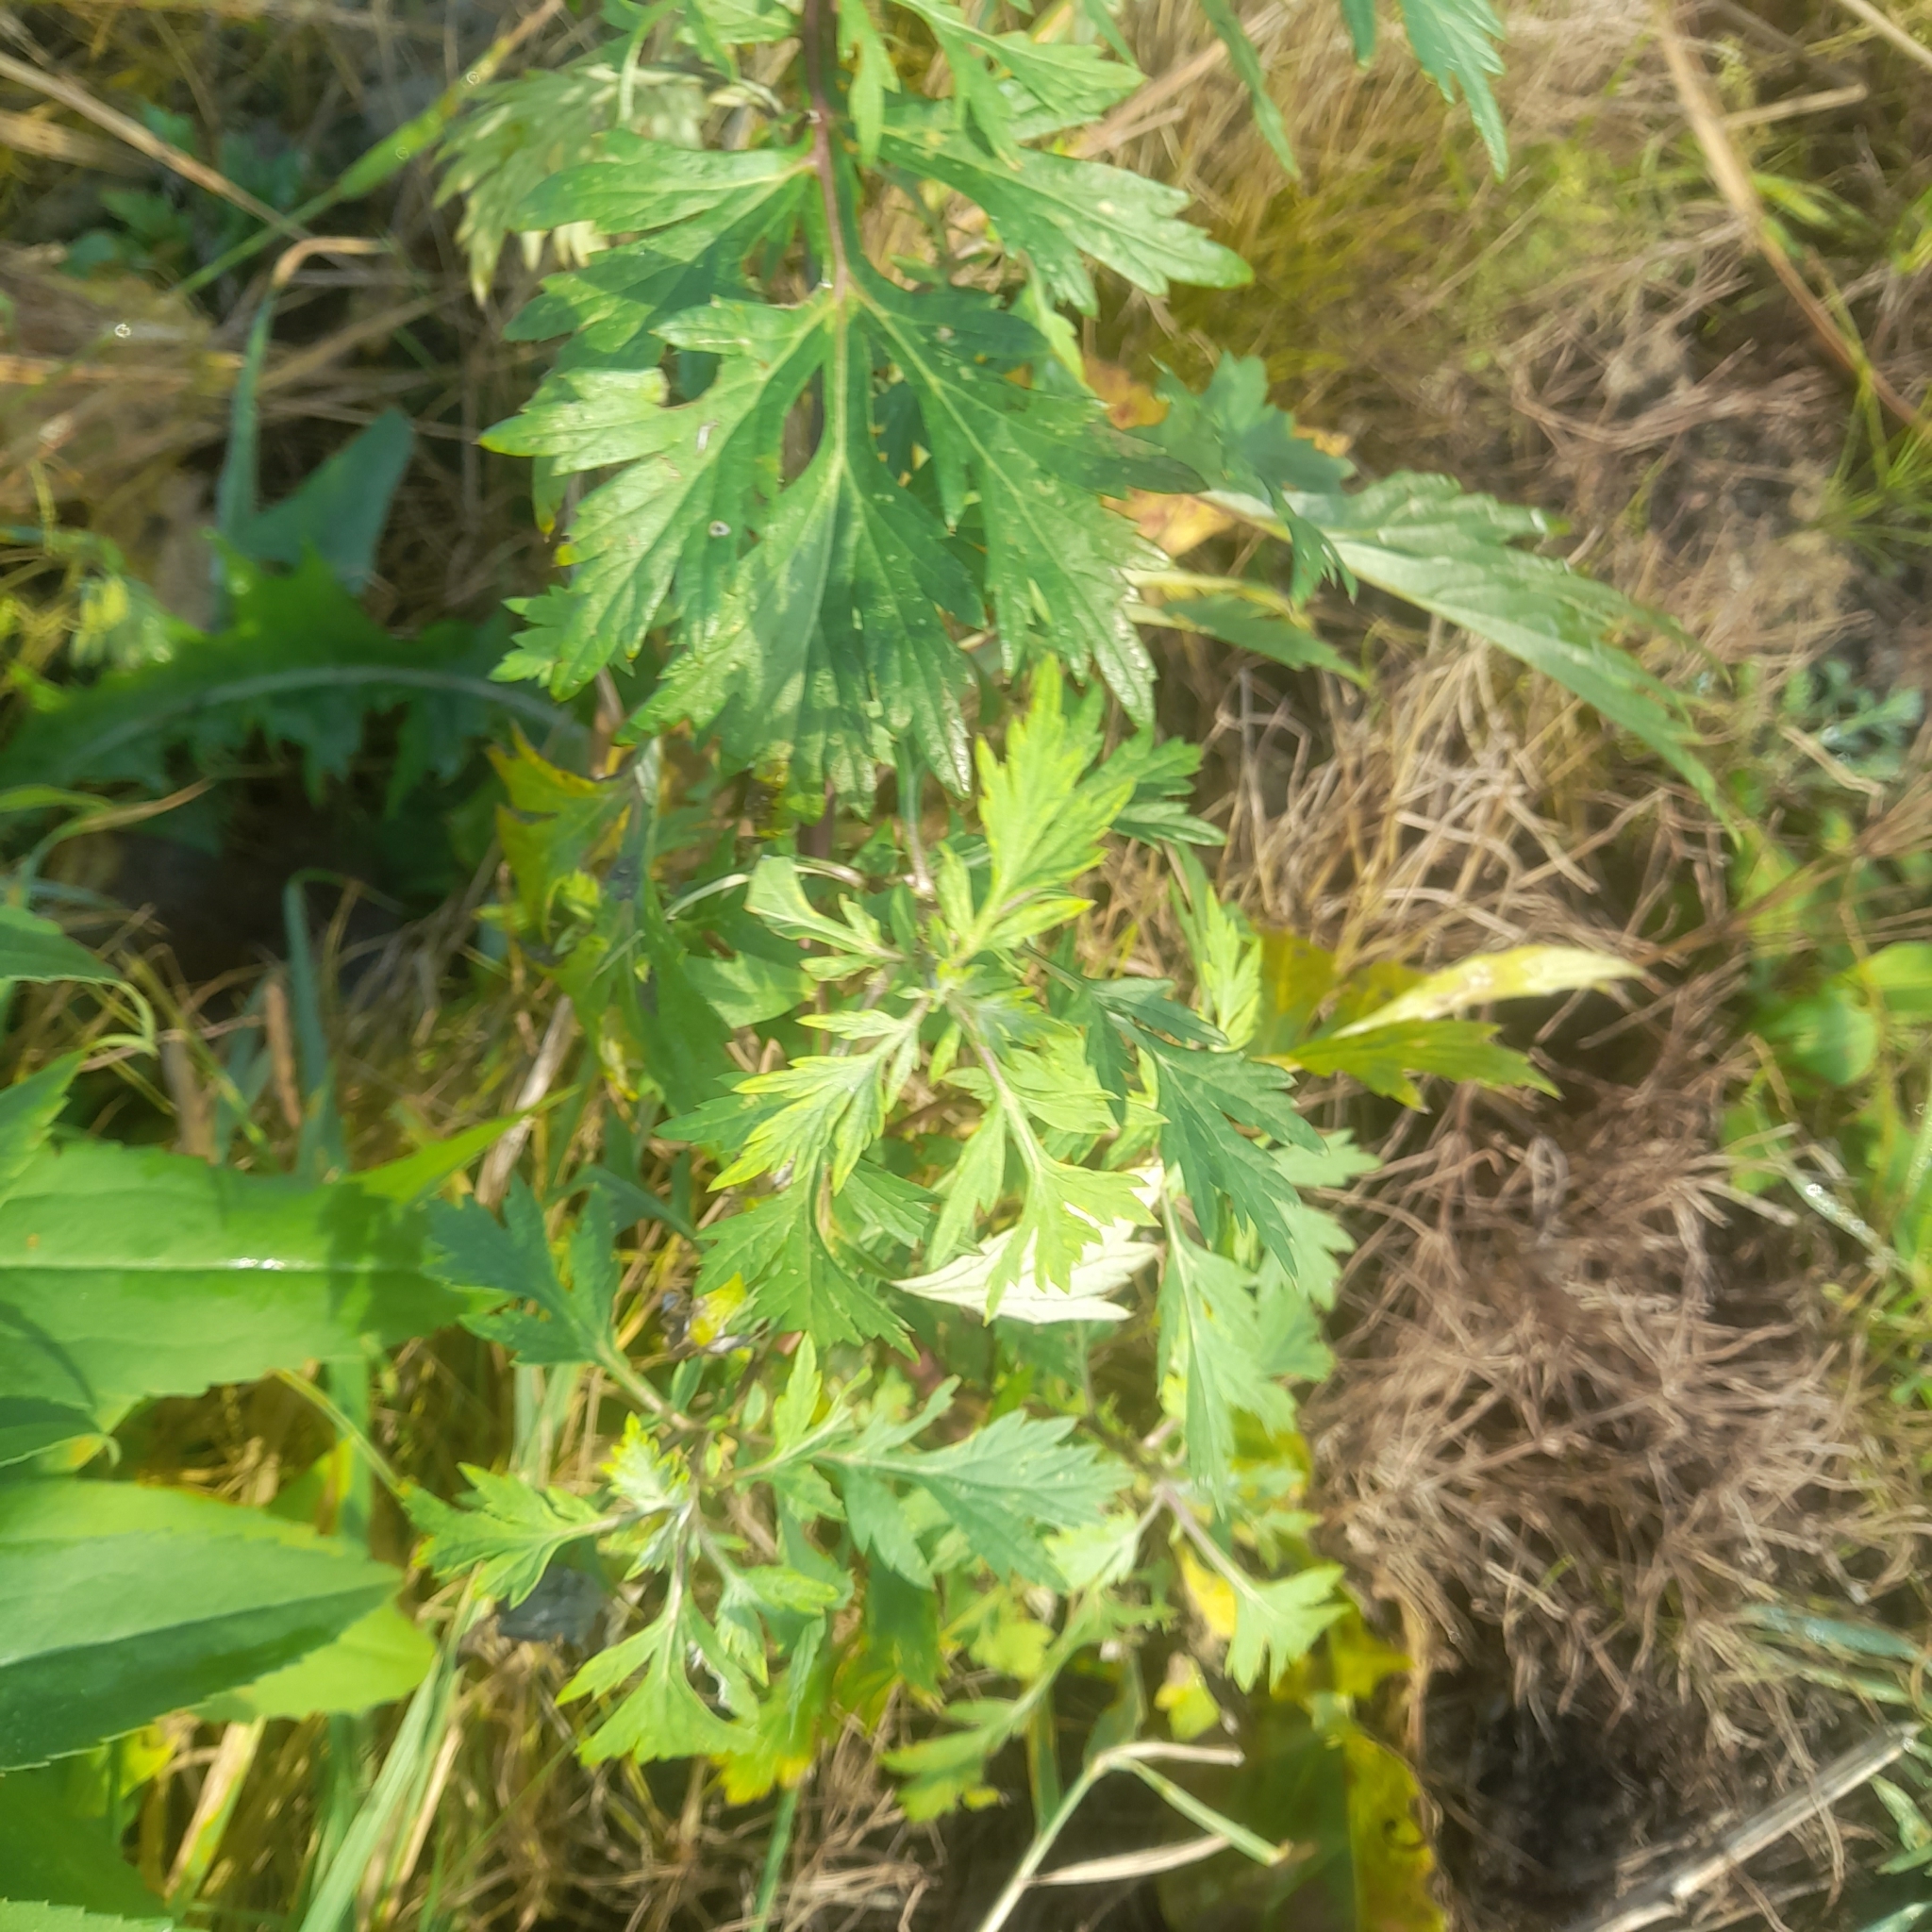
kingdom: Plantae
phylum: Tracheophyta
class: Magnoliopsida
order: Asterales
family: Asteraceae
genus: Artemisia
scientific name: Artemisia vulgaris
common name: Mugwort
